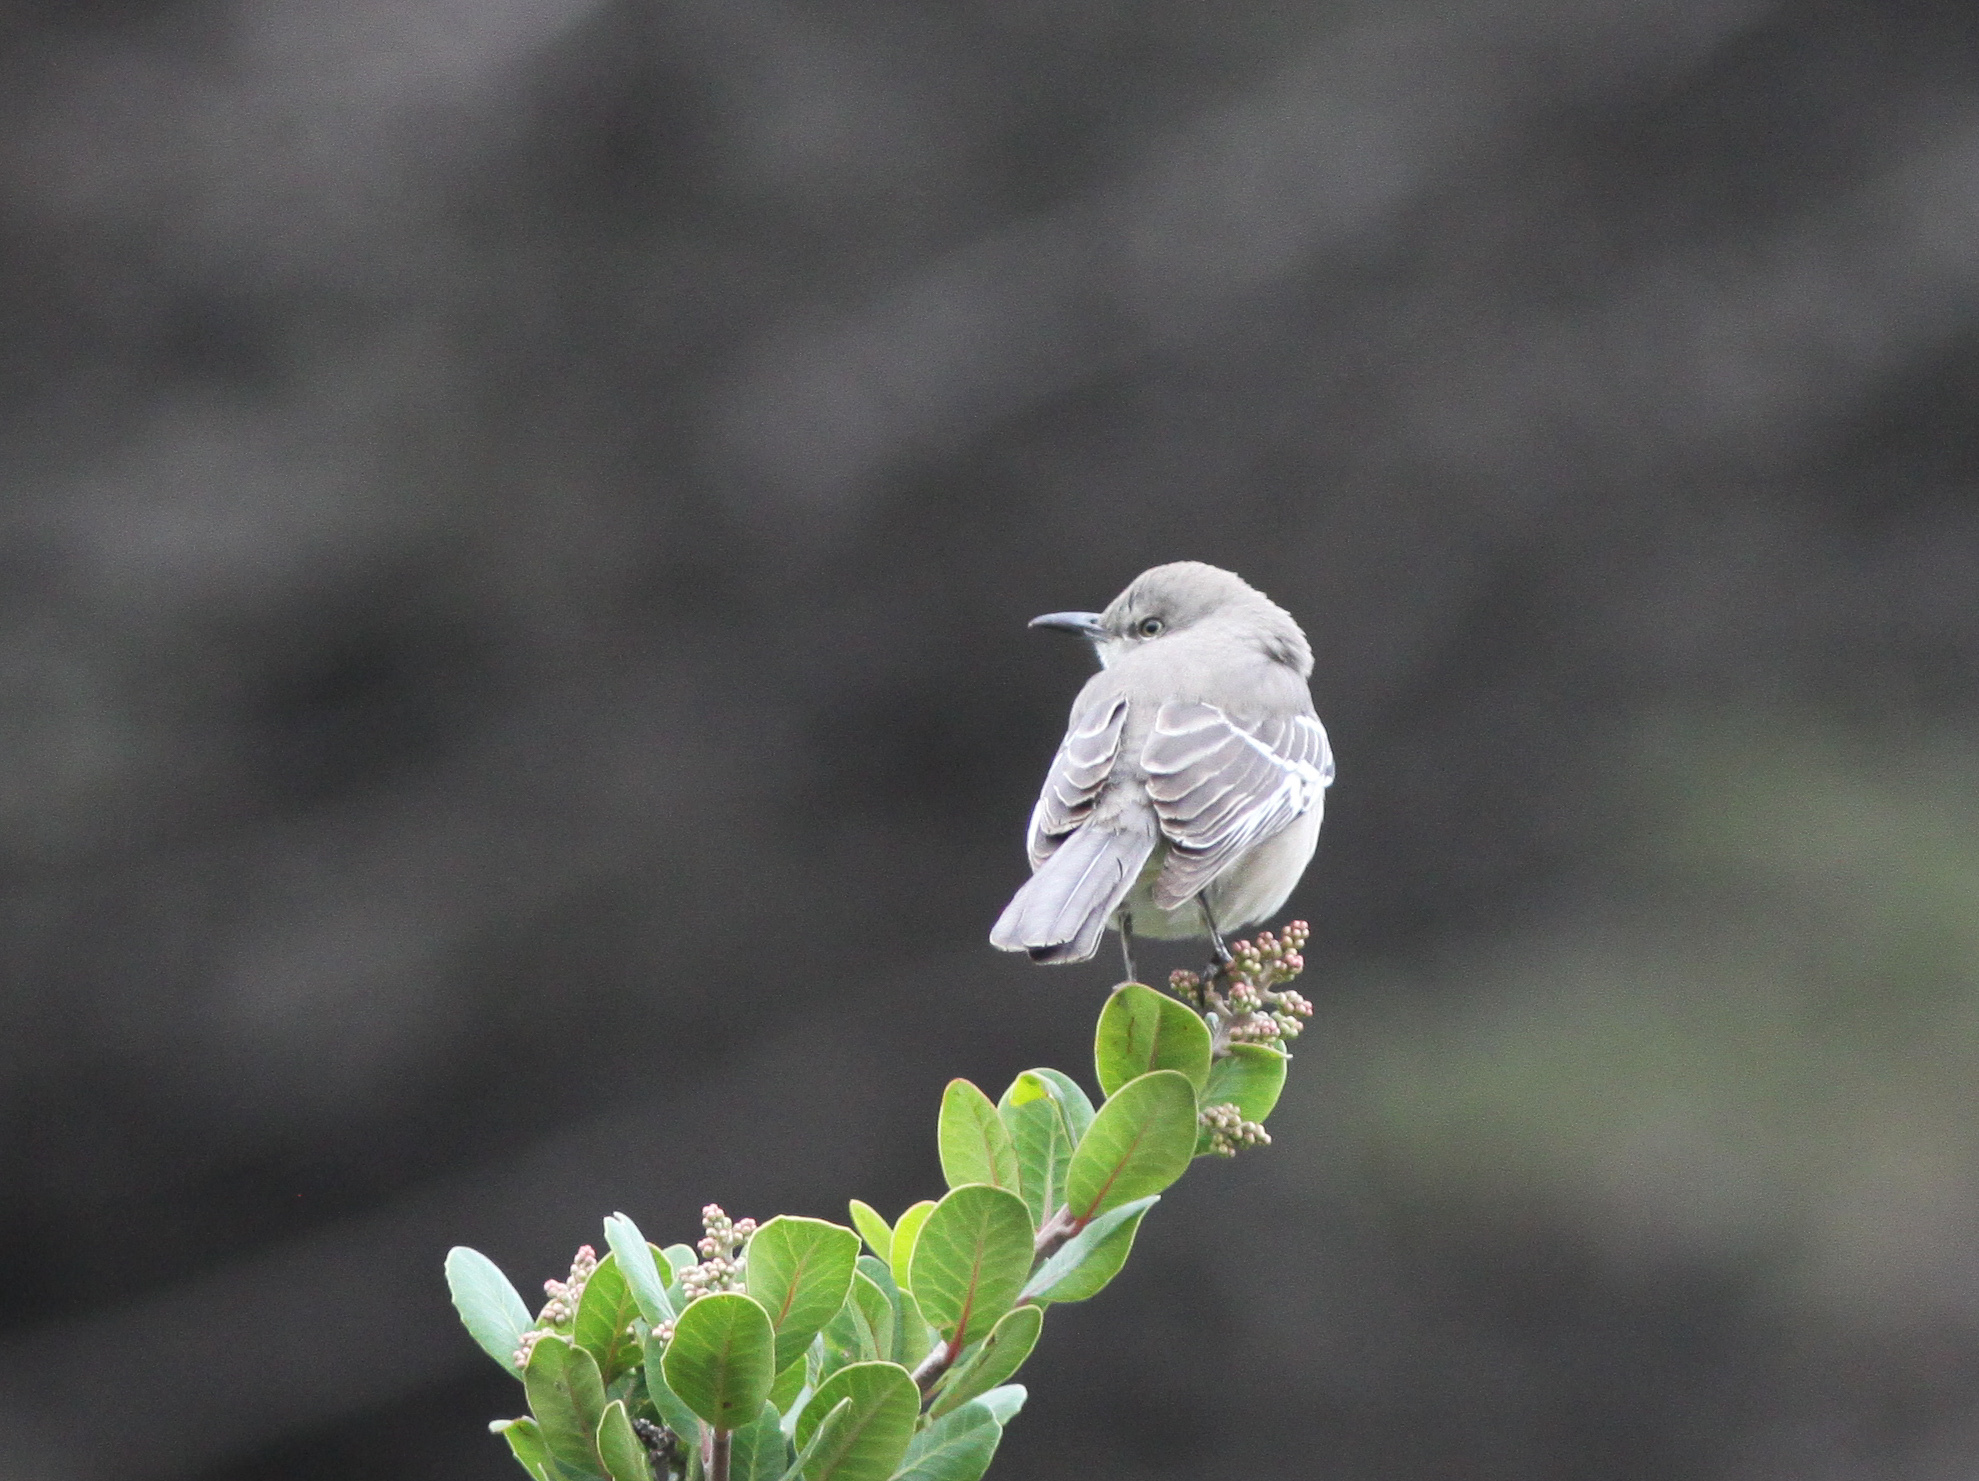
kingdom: Animalia
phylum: Chordata
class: Aves
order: Passeriformes
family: Mimidae
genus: Mimus
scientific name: Mimus polyglottos
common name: Northern mockingbird
